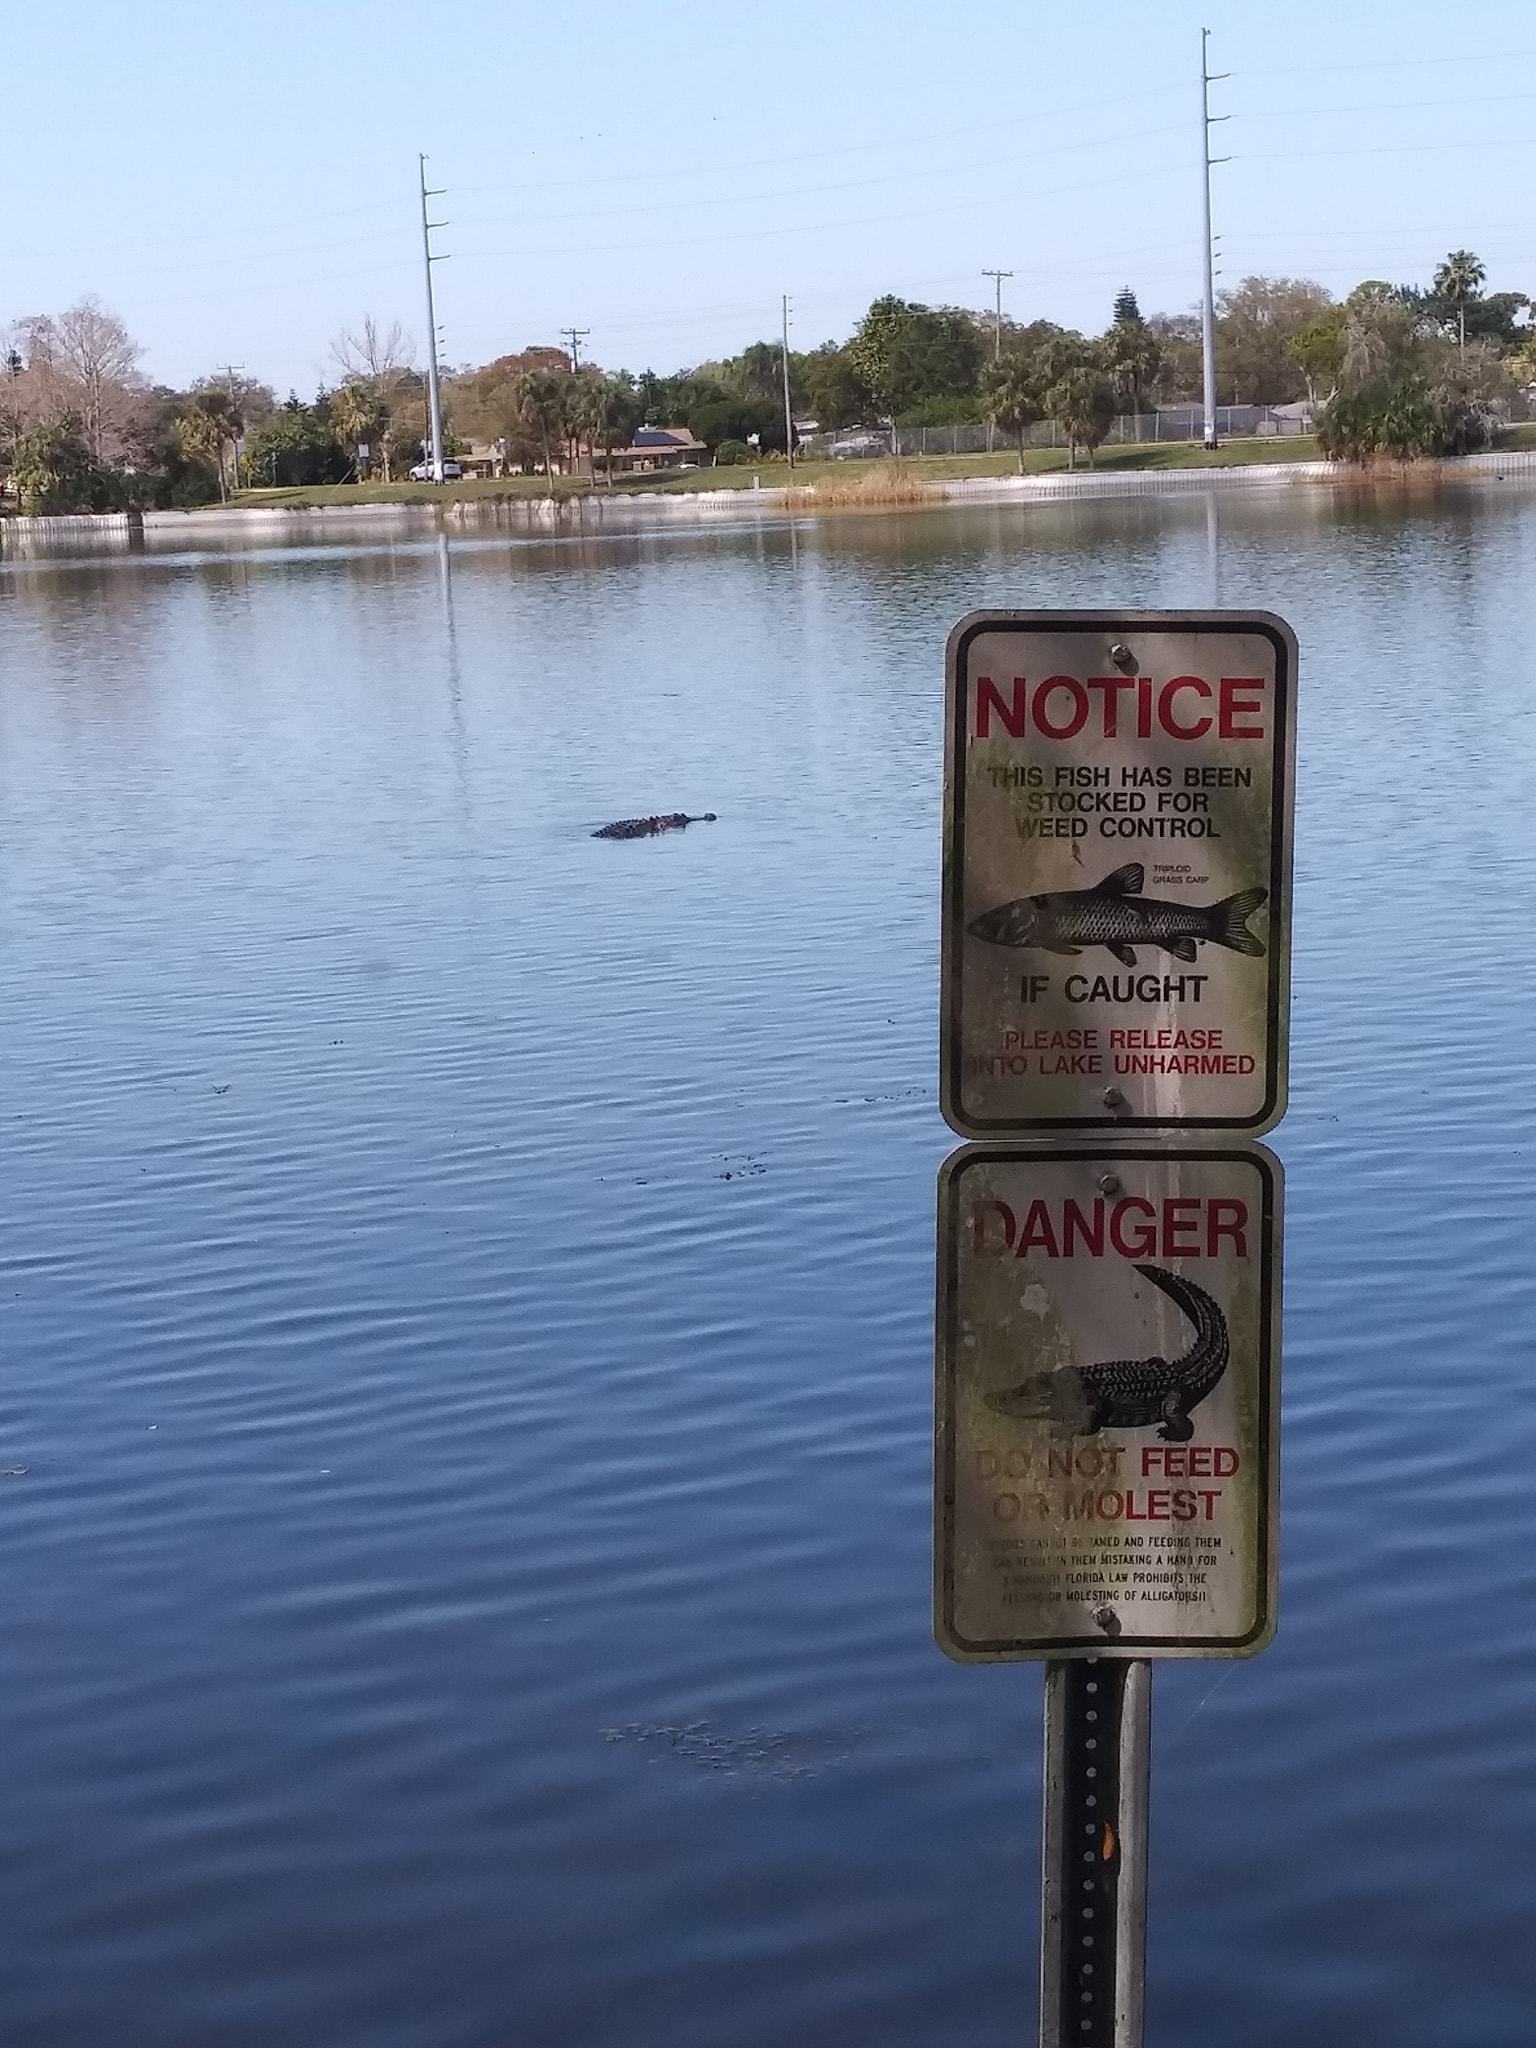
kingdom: Animalia
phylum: Chordata
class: Crocodylia
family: Alligatoridae
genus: Alligator
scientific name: Alligator mississippiensis
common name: American alligator
